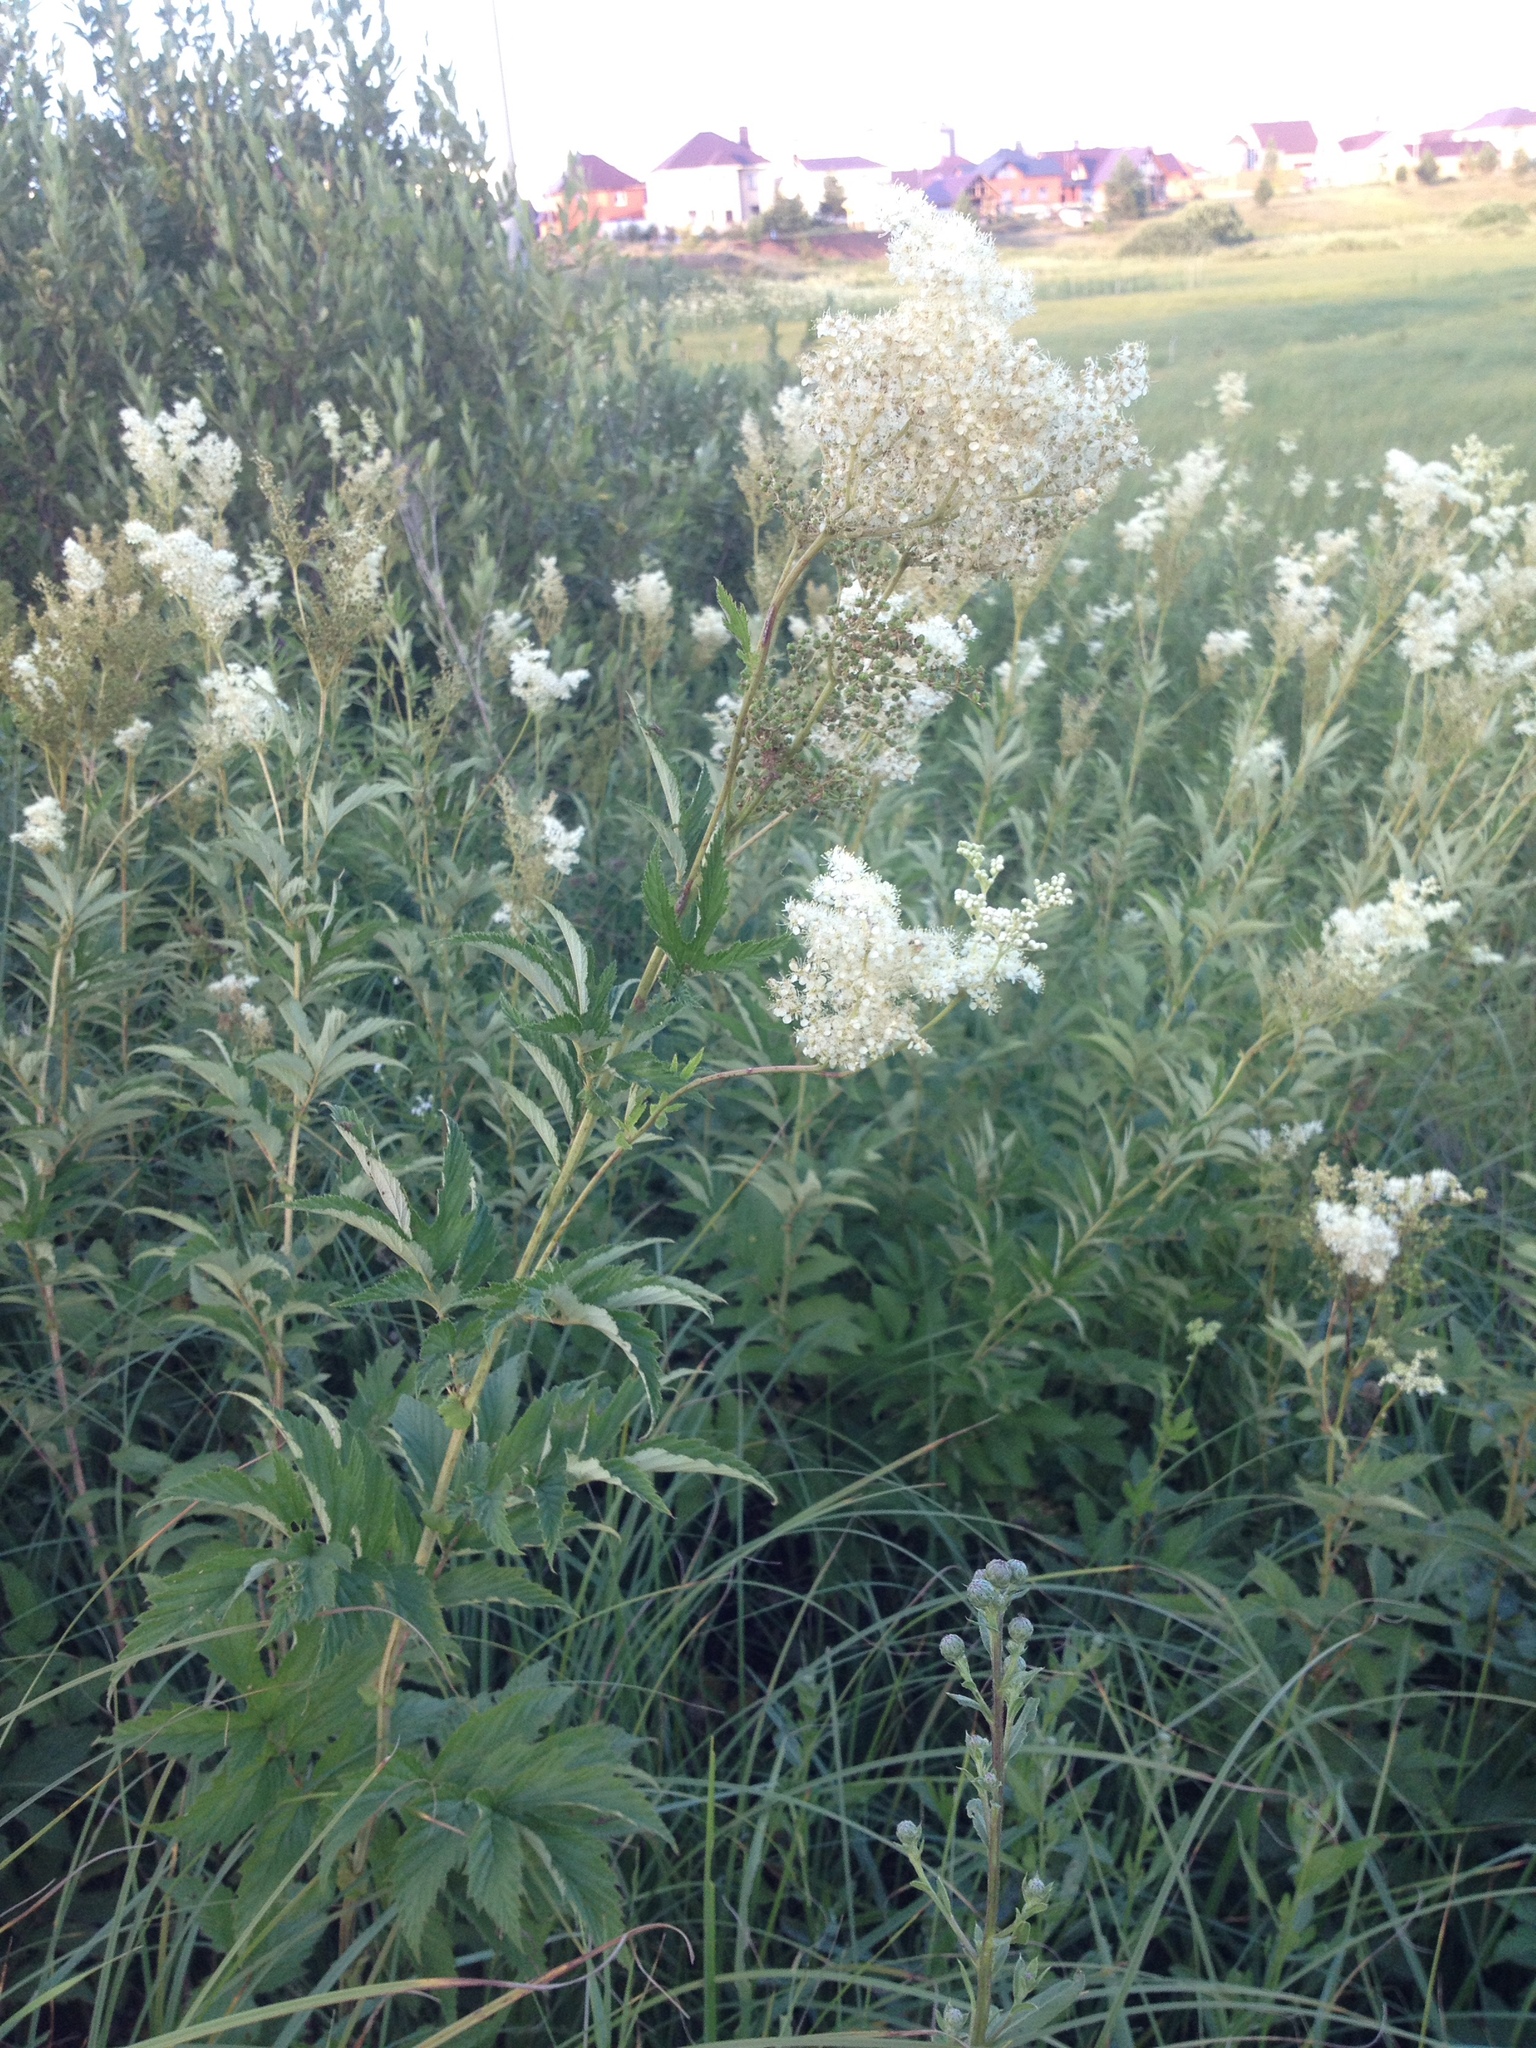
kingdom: Plantae
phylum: Tracheophyta
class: Magnoliopsida
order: Rosales
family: Rosaceae
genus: Filipendula
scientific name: Filipendula ulmaria
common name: Meadowsweet
